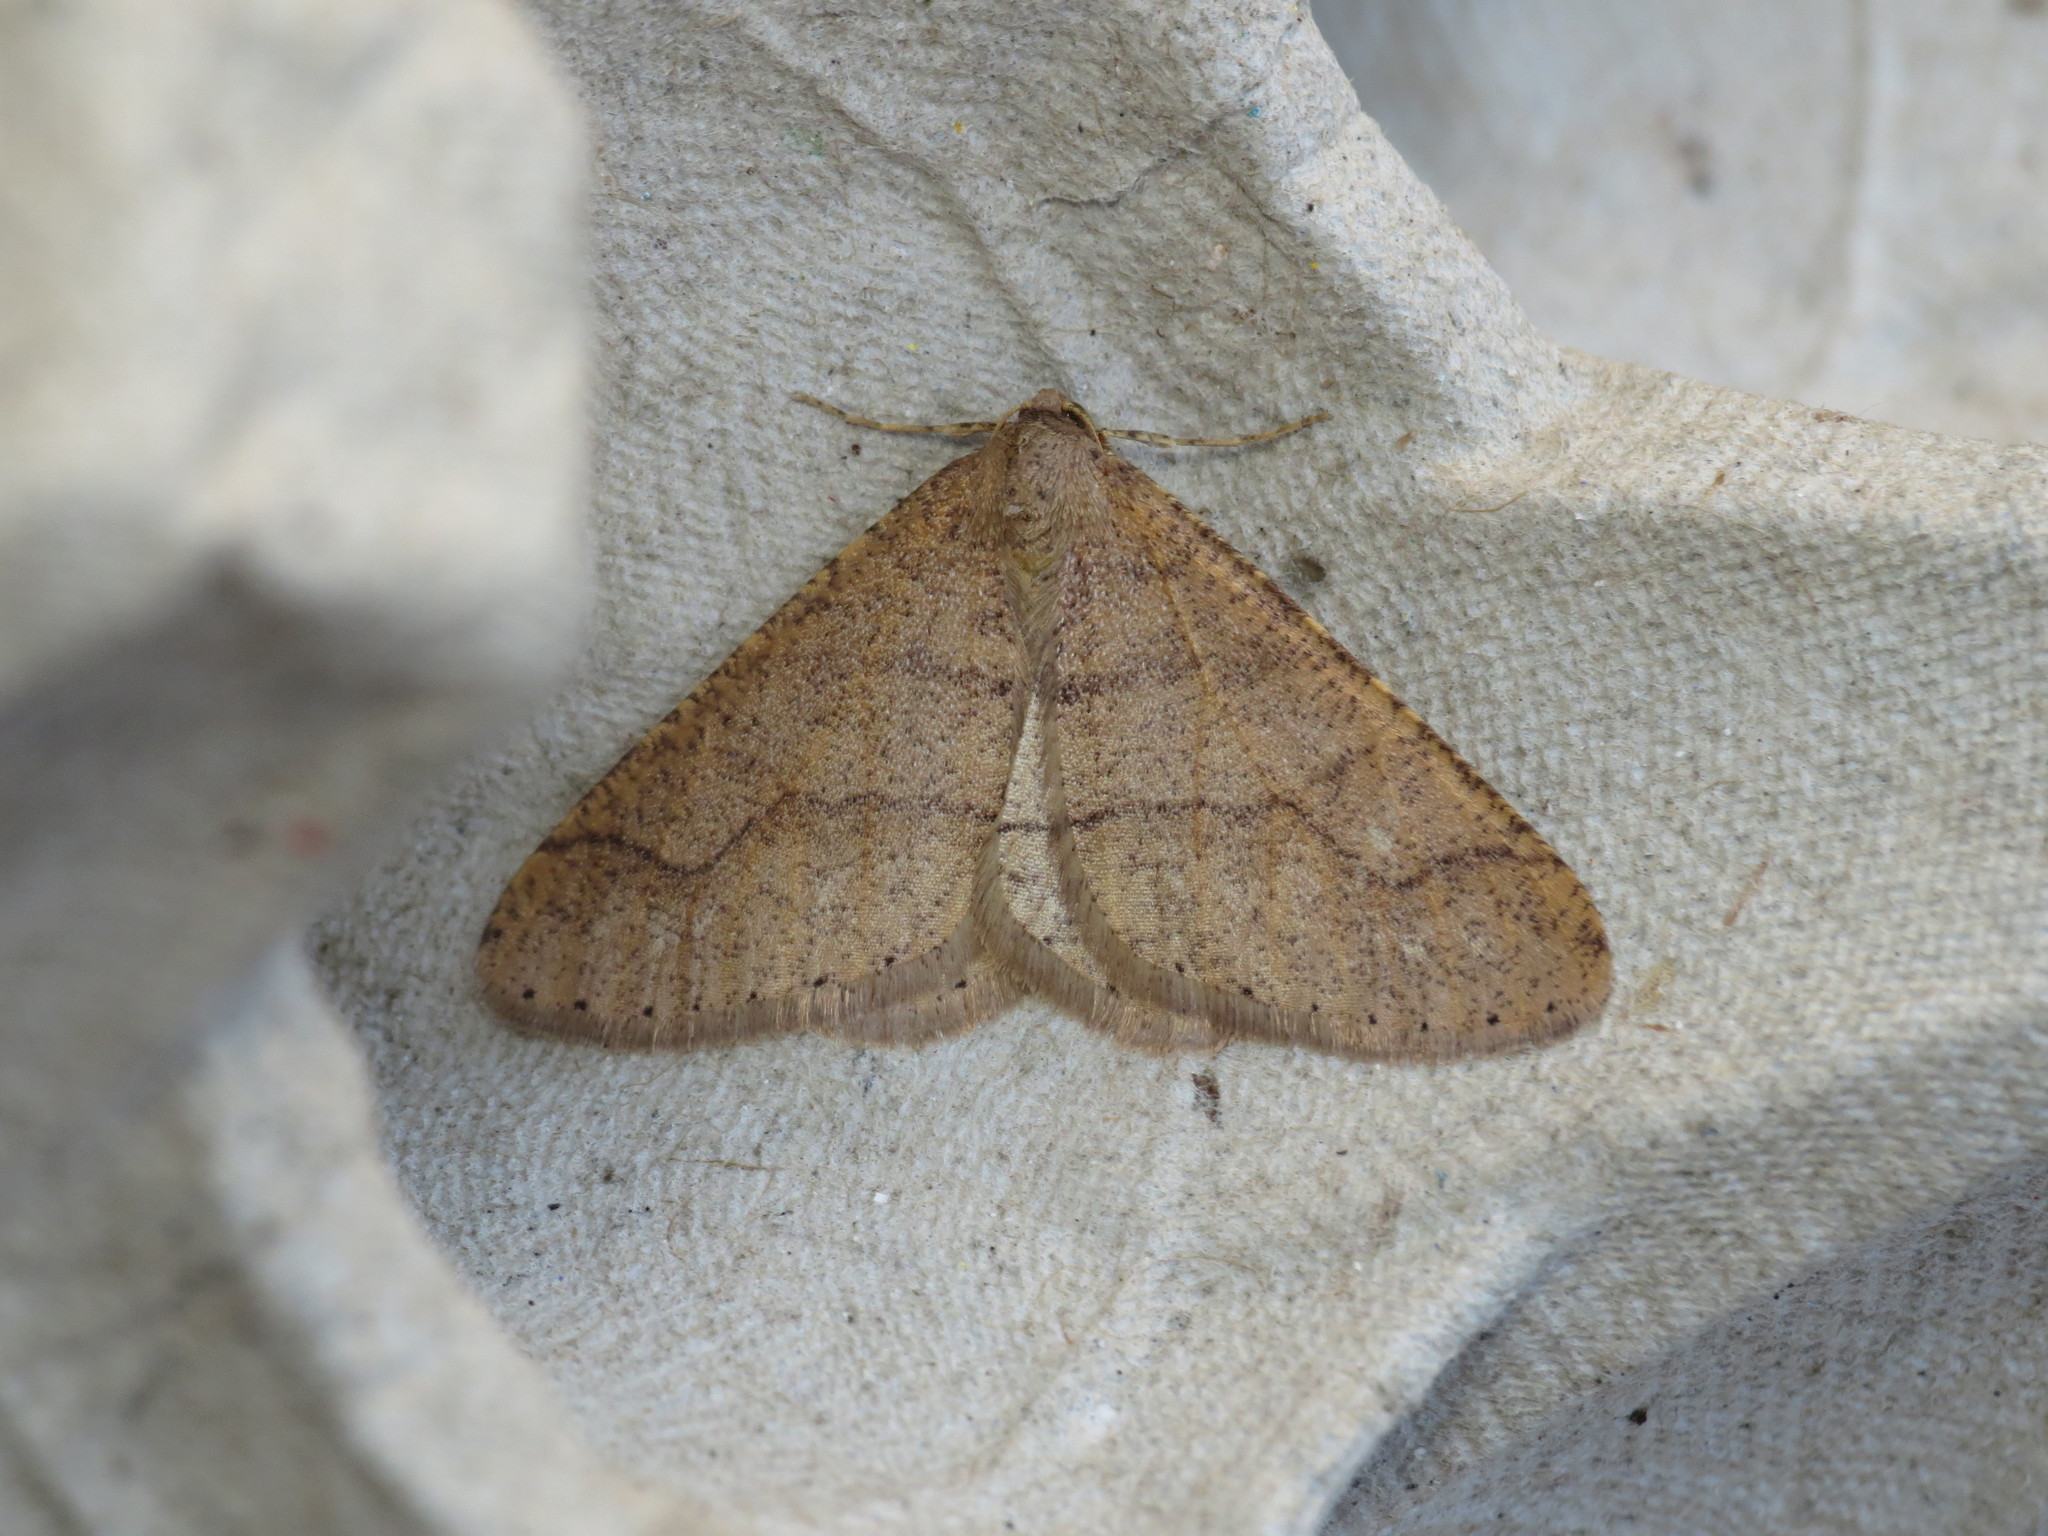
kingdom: Animalia
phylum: Arthropoda
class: Insecta
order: Lepidoptera
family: Geometridae
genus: Agriopis
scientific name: Agriopis marginaria
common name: Dotted border
